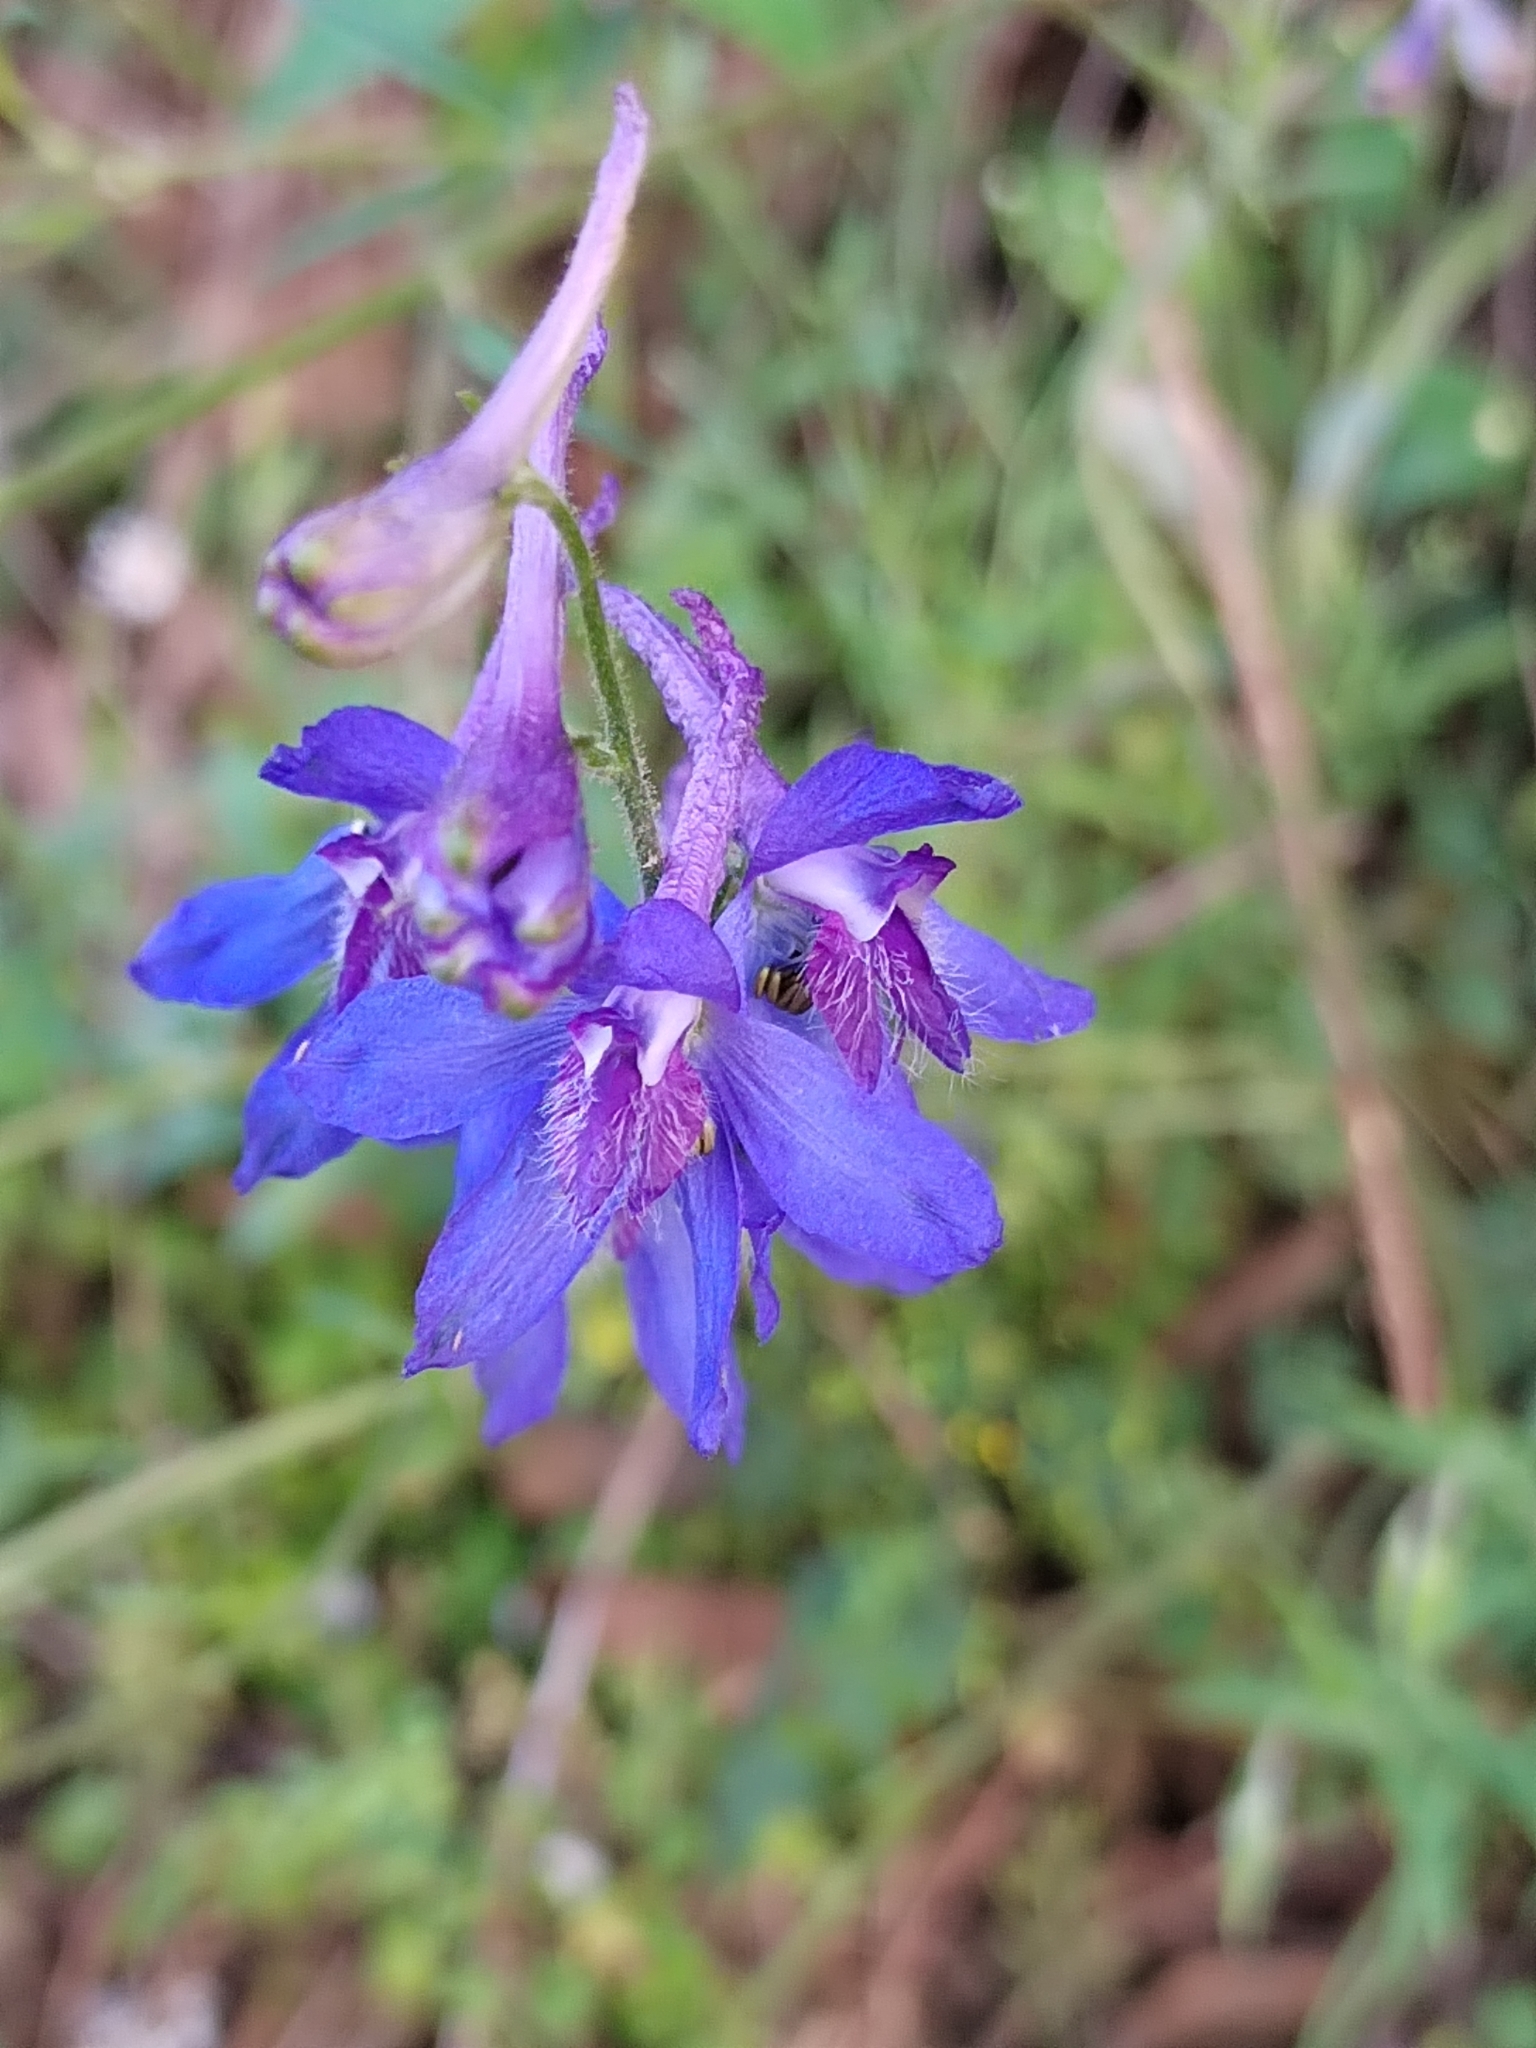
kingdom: Plantae
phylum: Tracheophyta
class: Magnoliopsida
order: Ranunculales
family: Ranunculaceae
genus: Delphinium
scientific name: Delphinium madrense
